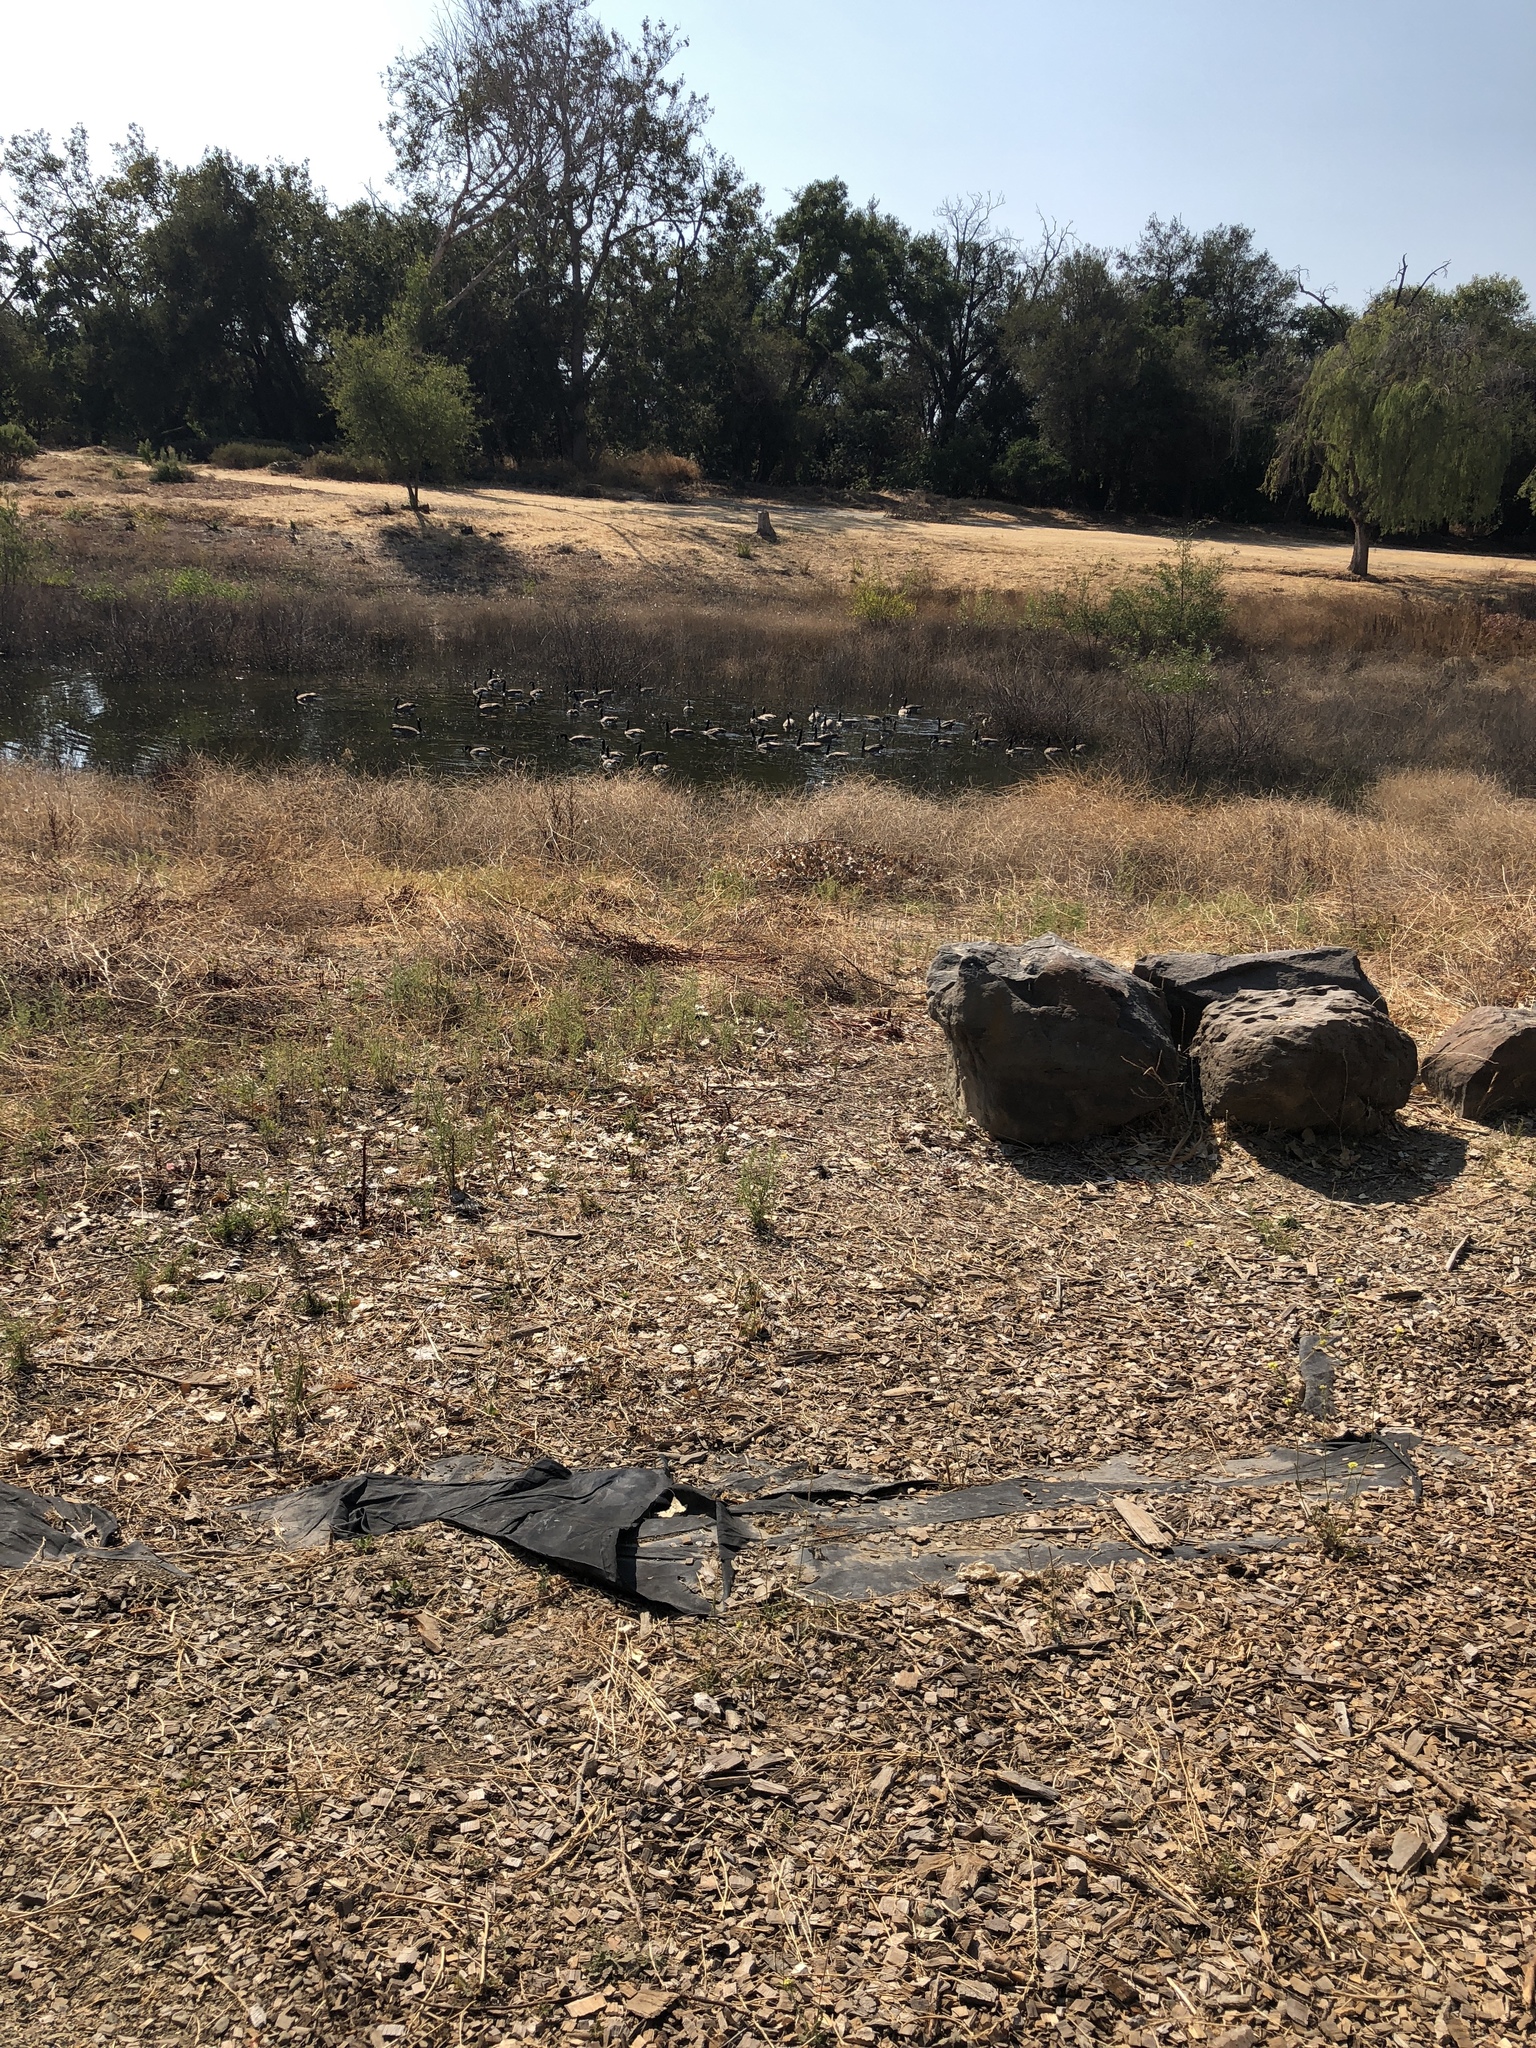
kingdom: Animalia
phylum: Chordata
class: Aves
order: Anseriformes
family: Anatidae
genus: Branta
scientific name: Branta canadensis
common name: Canada goose
